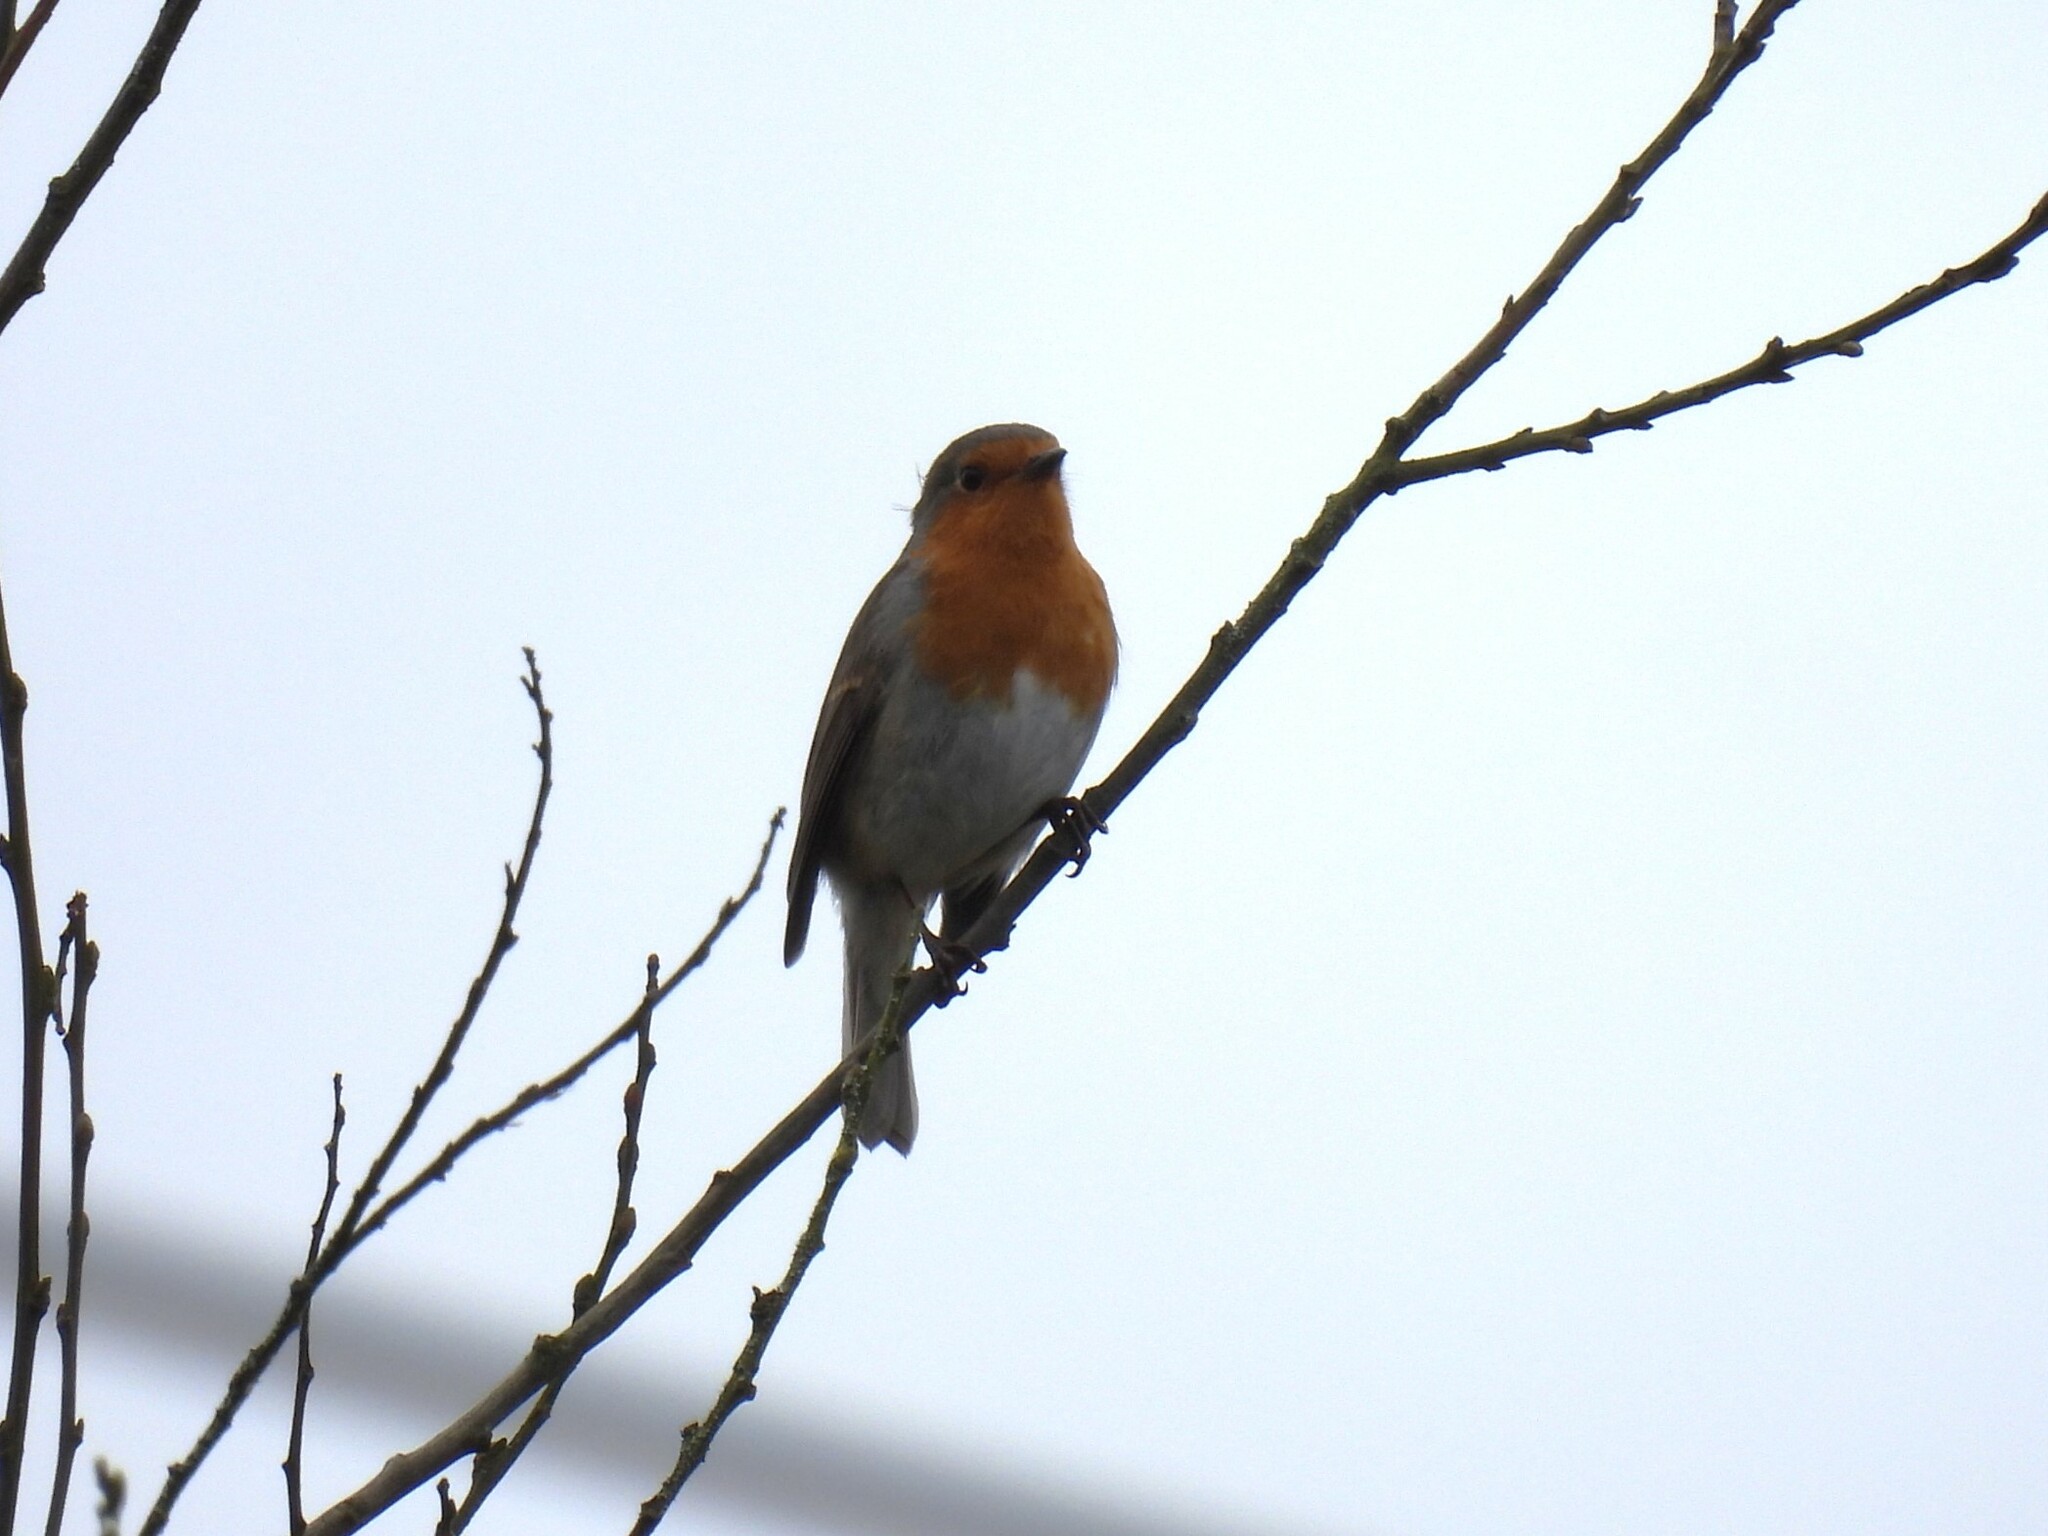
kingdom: Animalia
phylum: Chordata
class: Aves
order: Passeriformes
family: Muscicapidae
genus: Erithacus
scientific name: Erithacus rubecula
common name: European robin
